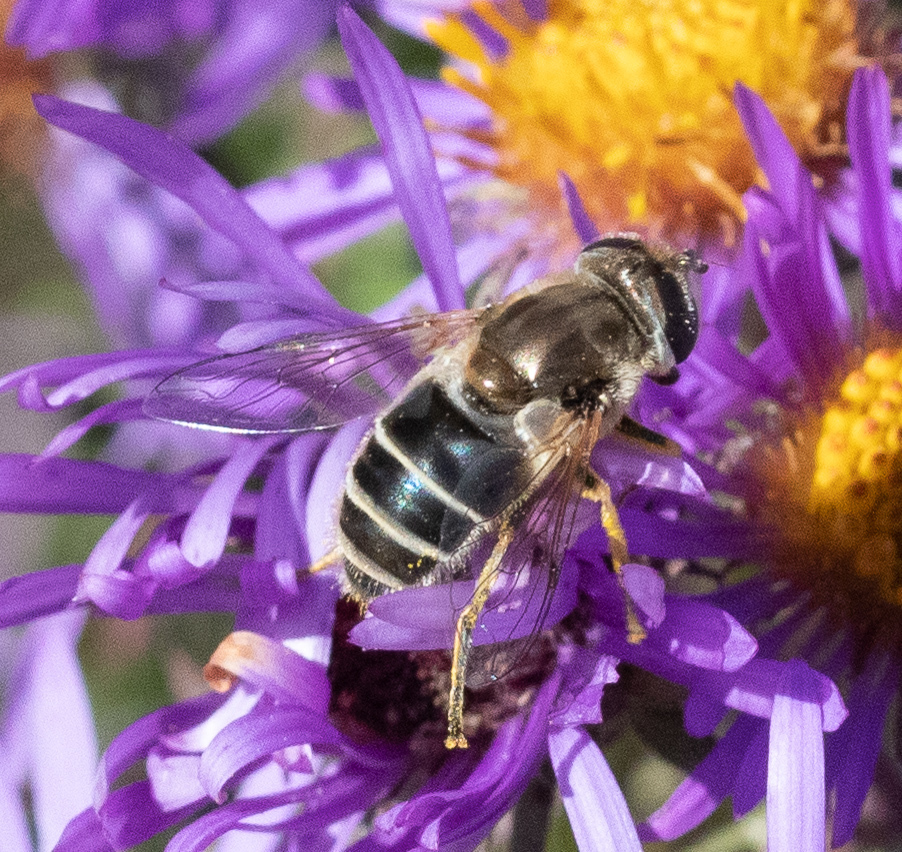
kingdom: Animalia
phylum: Arthropoda
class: Insecta
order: Diptera
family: Syrphidae
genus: Eristalis
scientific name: Eristalis arbustorum
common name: Hover fly
